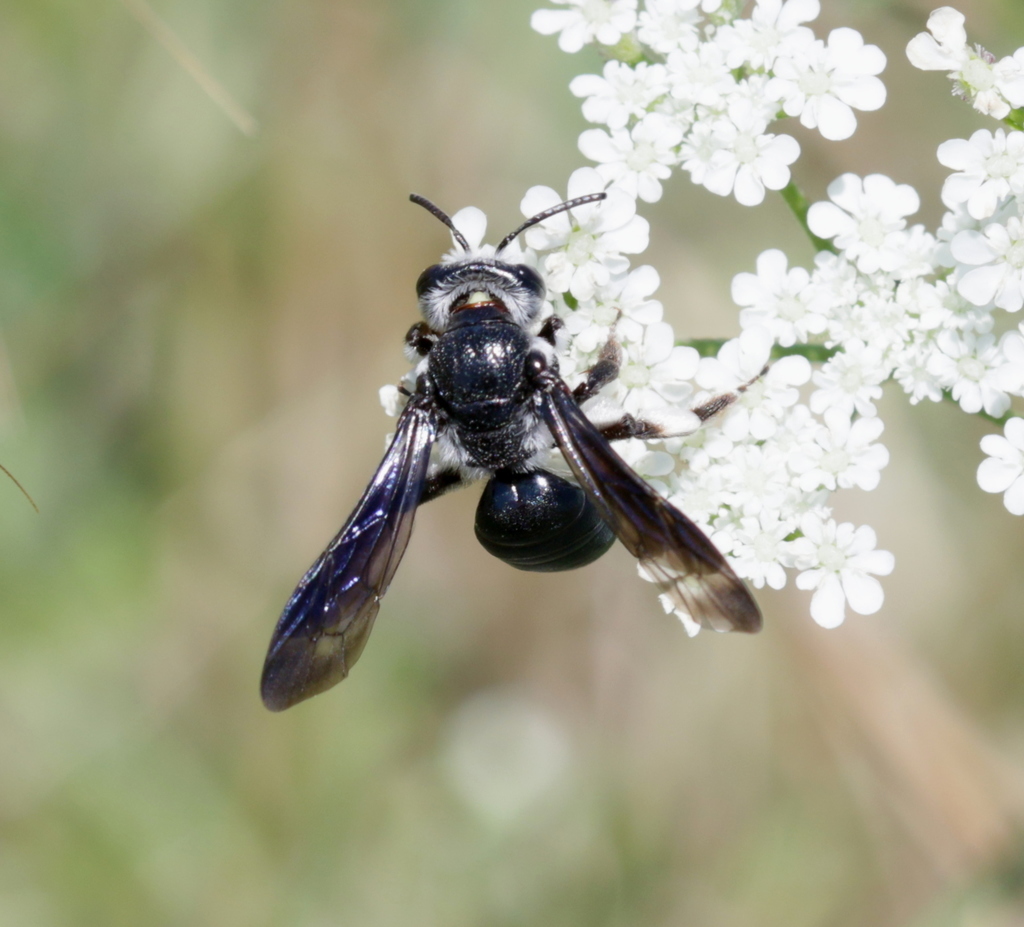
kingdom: Animalia
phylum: Arthropoda
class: Insecta
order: Hymenoptera
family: Andrenidae
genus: Andrena
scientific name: Andrena agilissima
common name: Violet-winged mining bee
